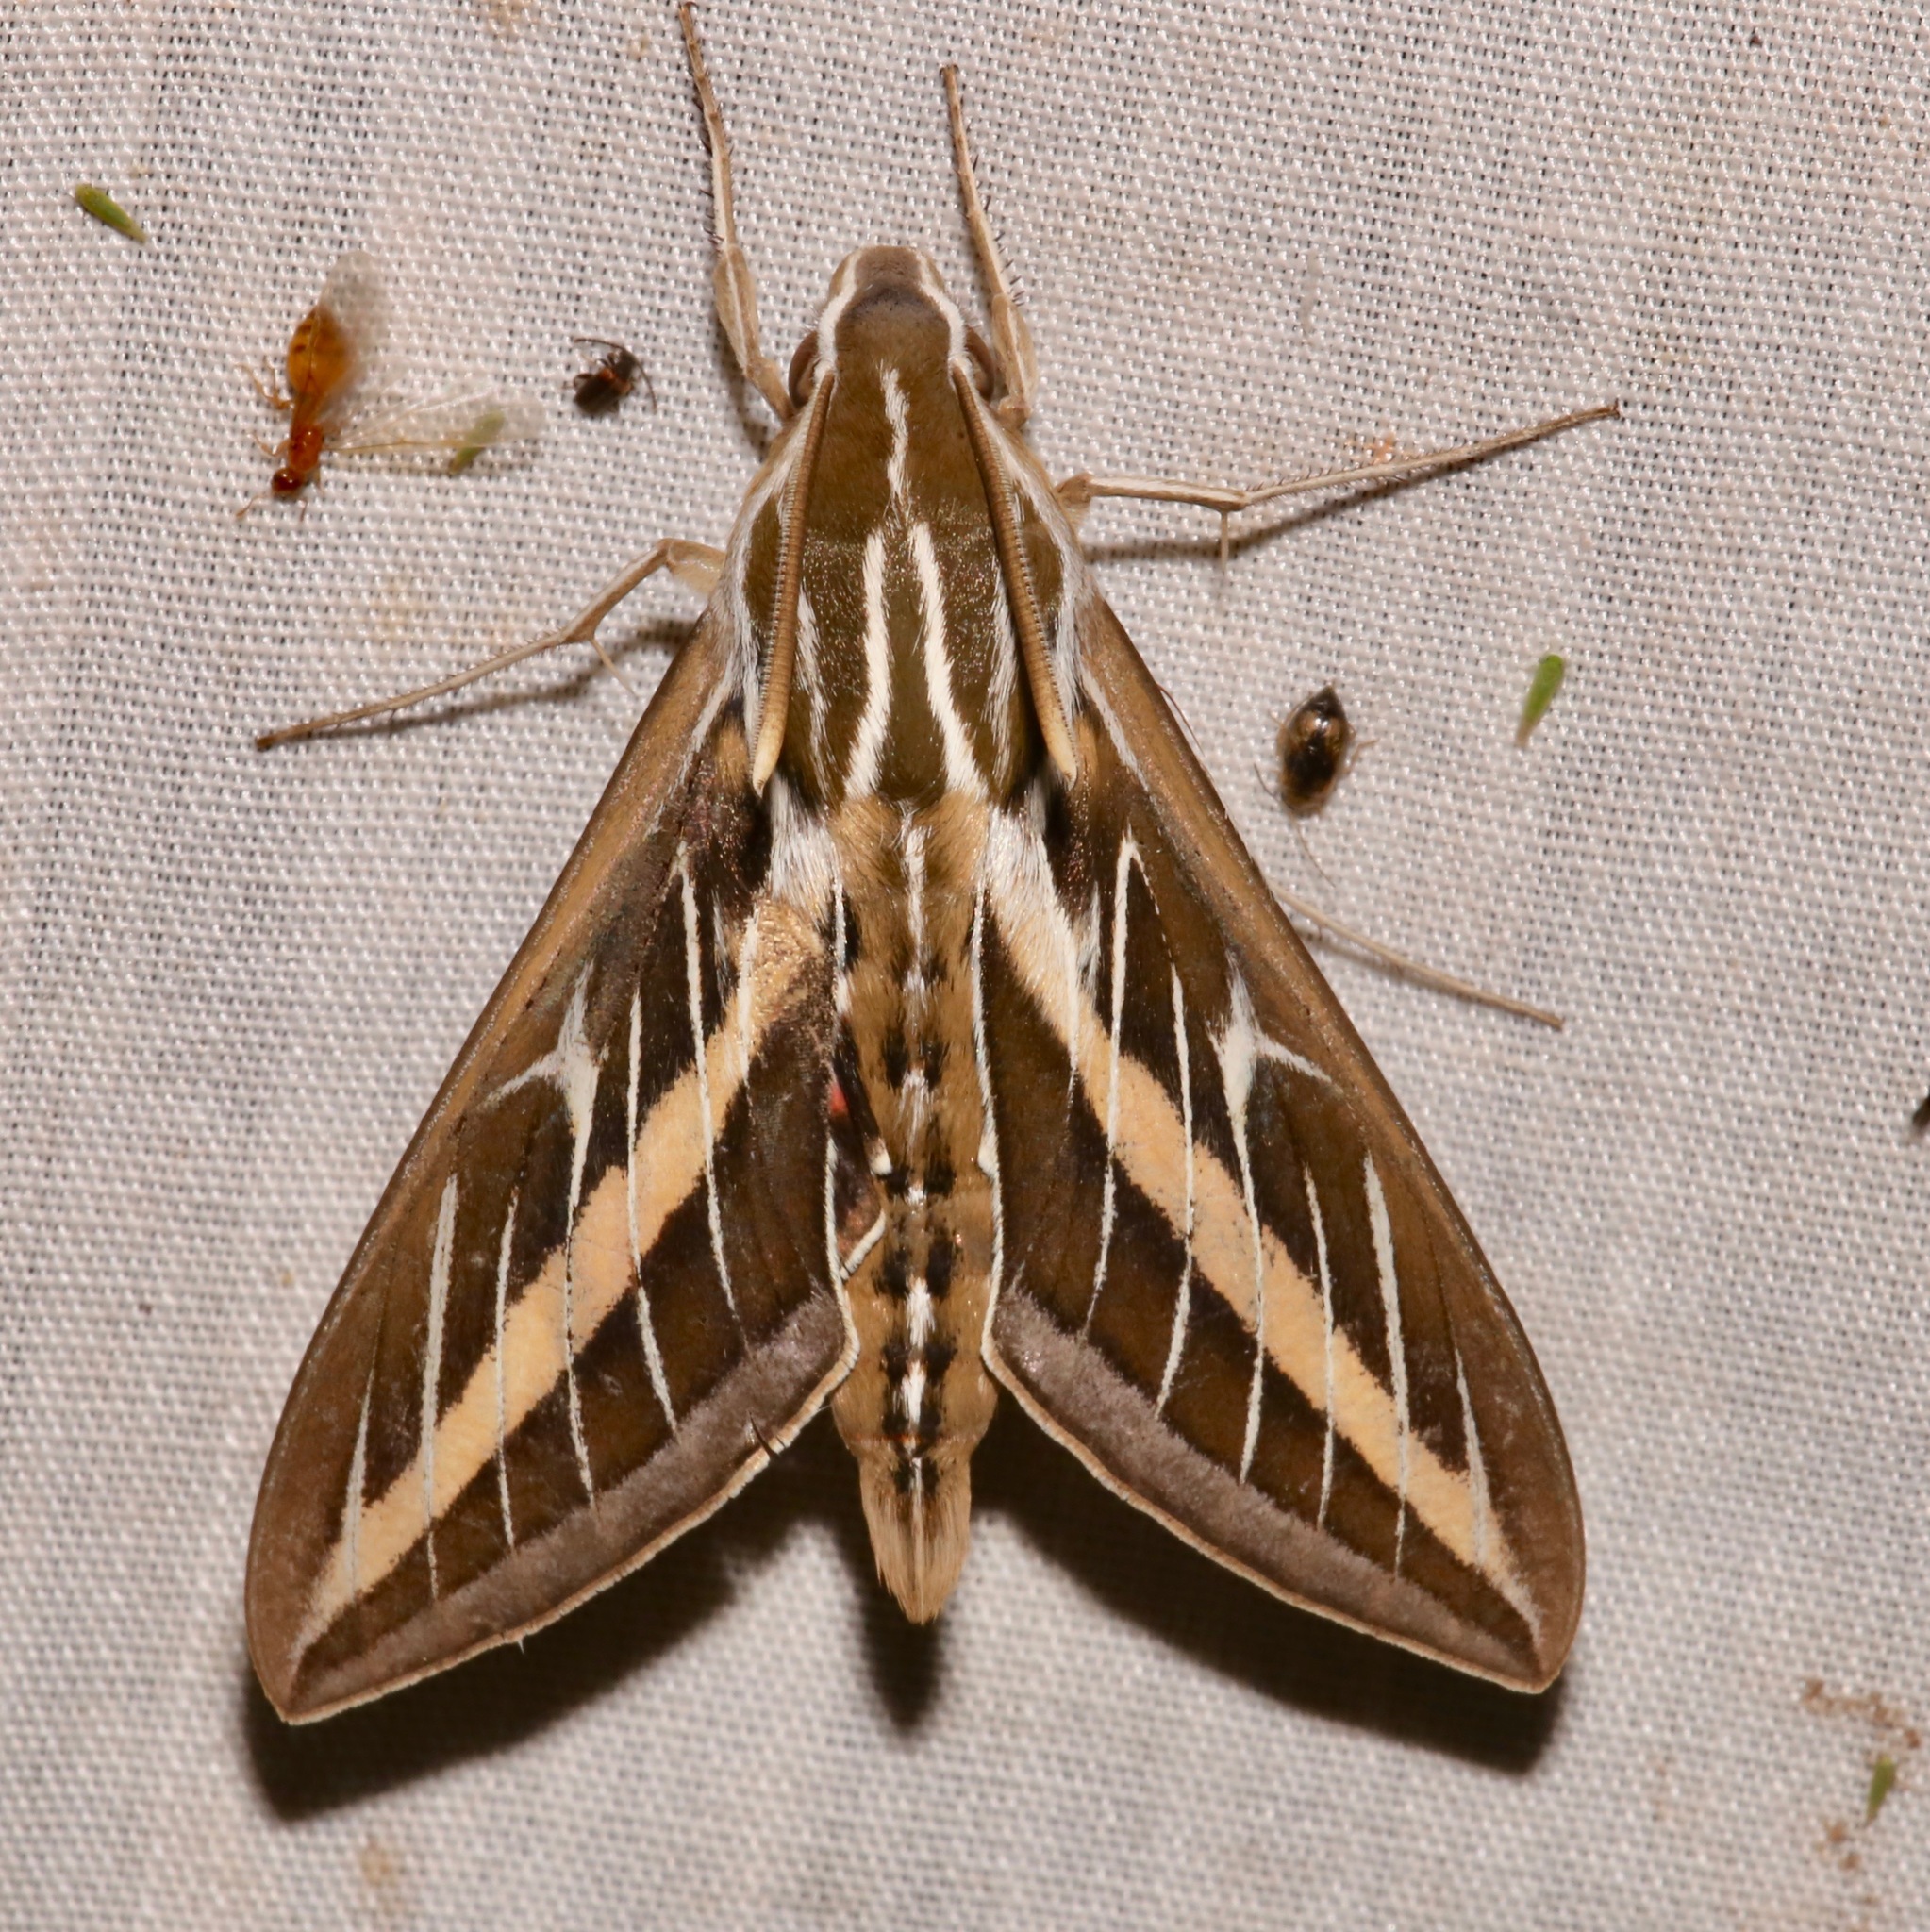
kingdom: Animalia
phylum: Arthropoda
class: Insecta
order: Lepidoptera
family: Sphingidae
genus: Hyles
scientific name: Hyles lineata
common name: White-lined sphinx
